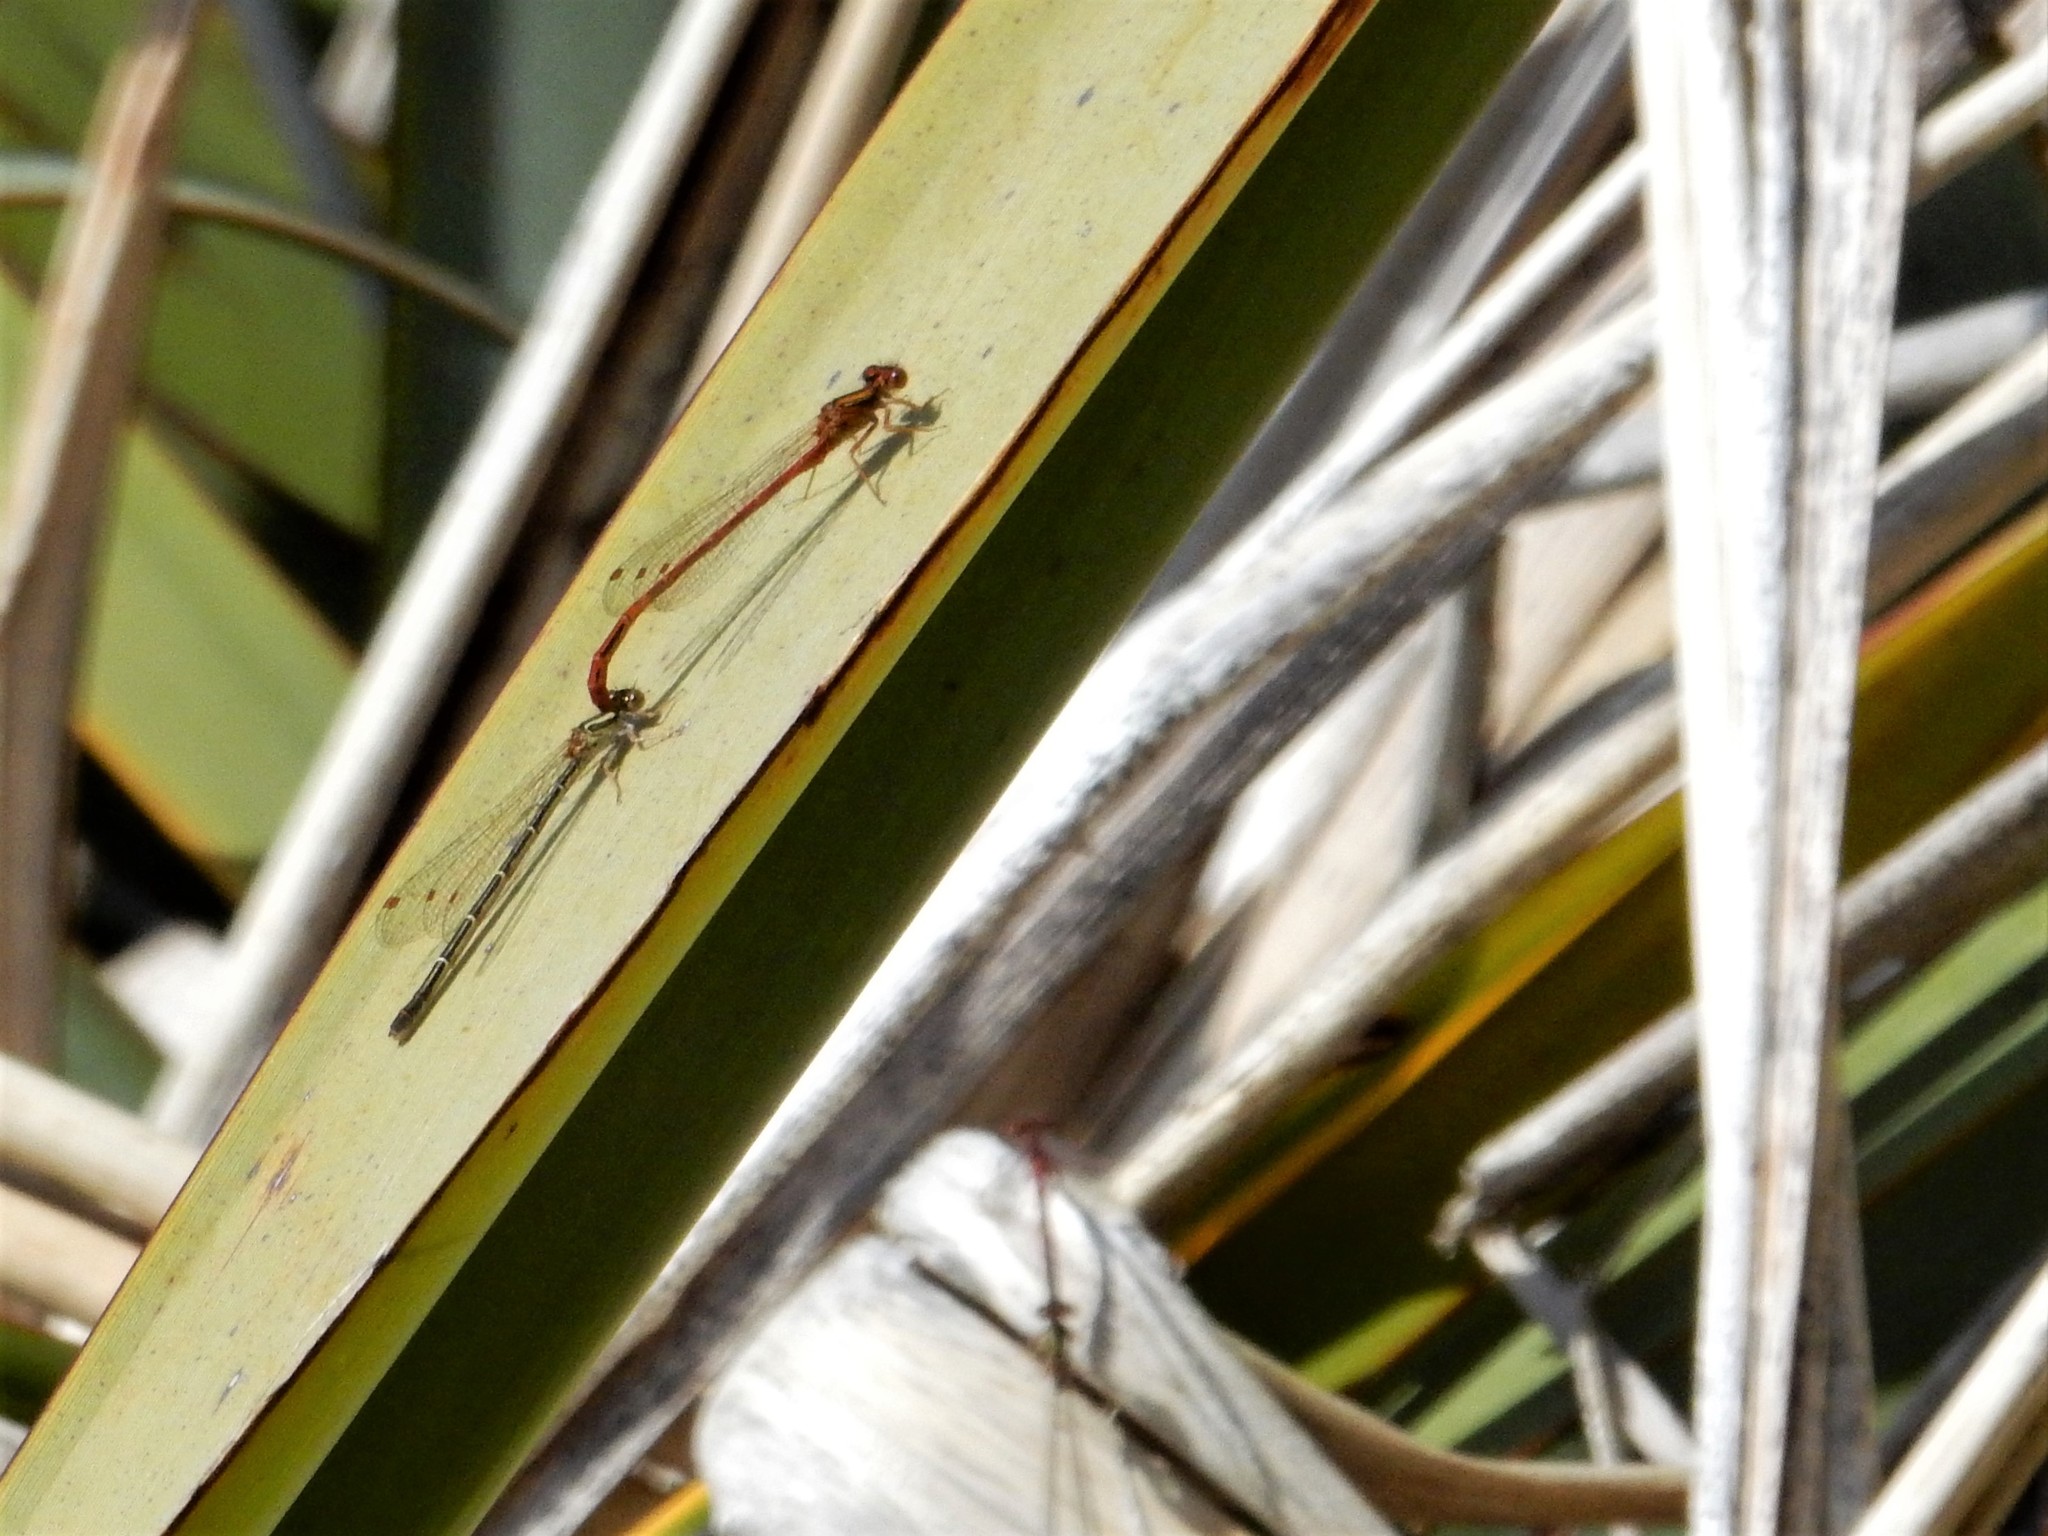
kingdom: Animalia
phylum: Arthropoda
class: Insecta
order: Odonata
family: Coenagrionidae
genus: Xanthocnemis
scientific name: Xanthocnemis zealandica
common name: Common redcoat damselfly
